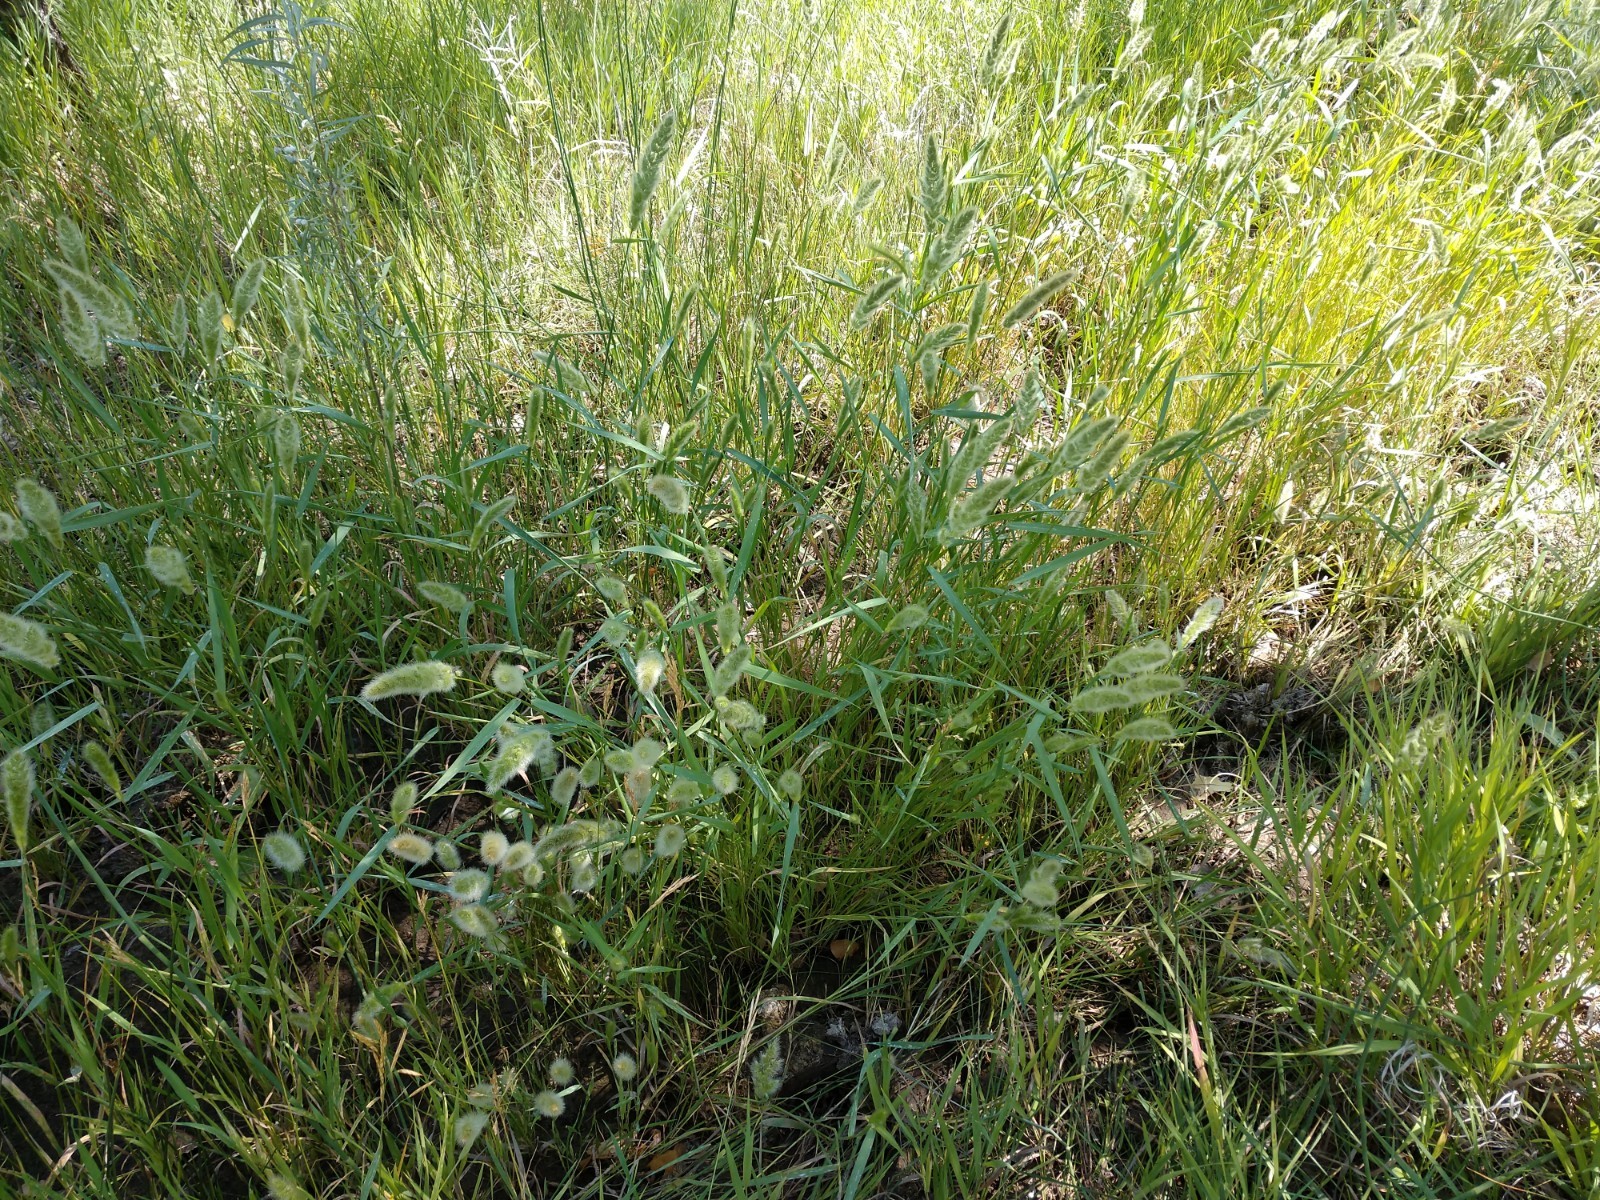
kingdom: Plantae
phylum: Tracheophyta
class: Liliopsida
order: Poales
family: Poaceae
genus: Polypogon
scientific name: Polypogon monspeliensis
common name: Annual rabbitsfoot grass
